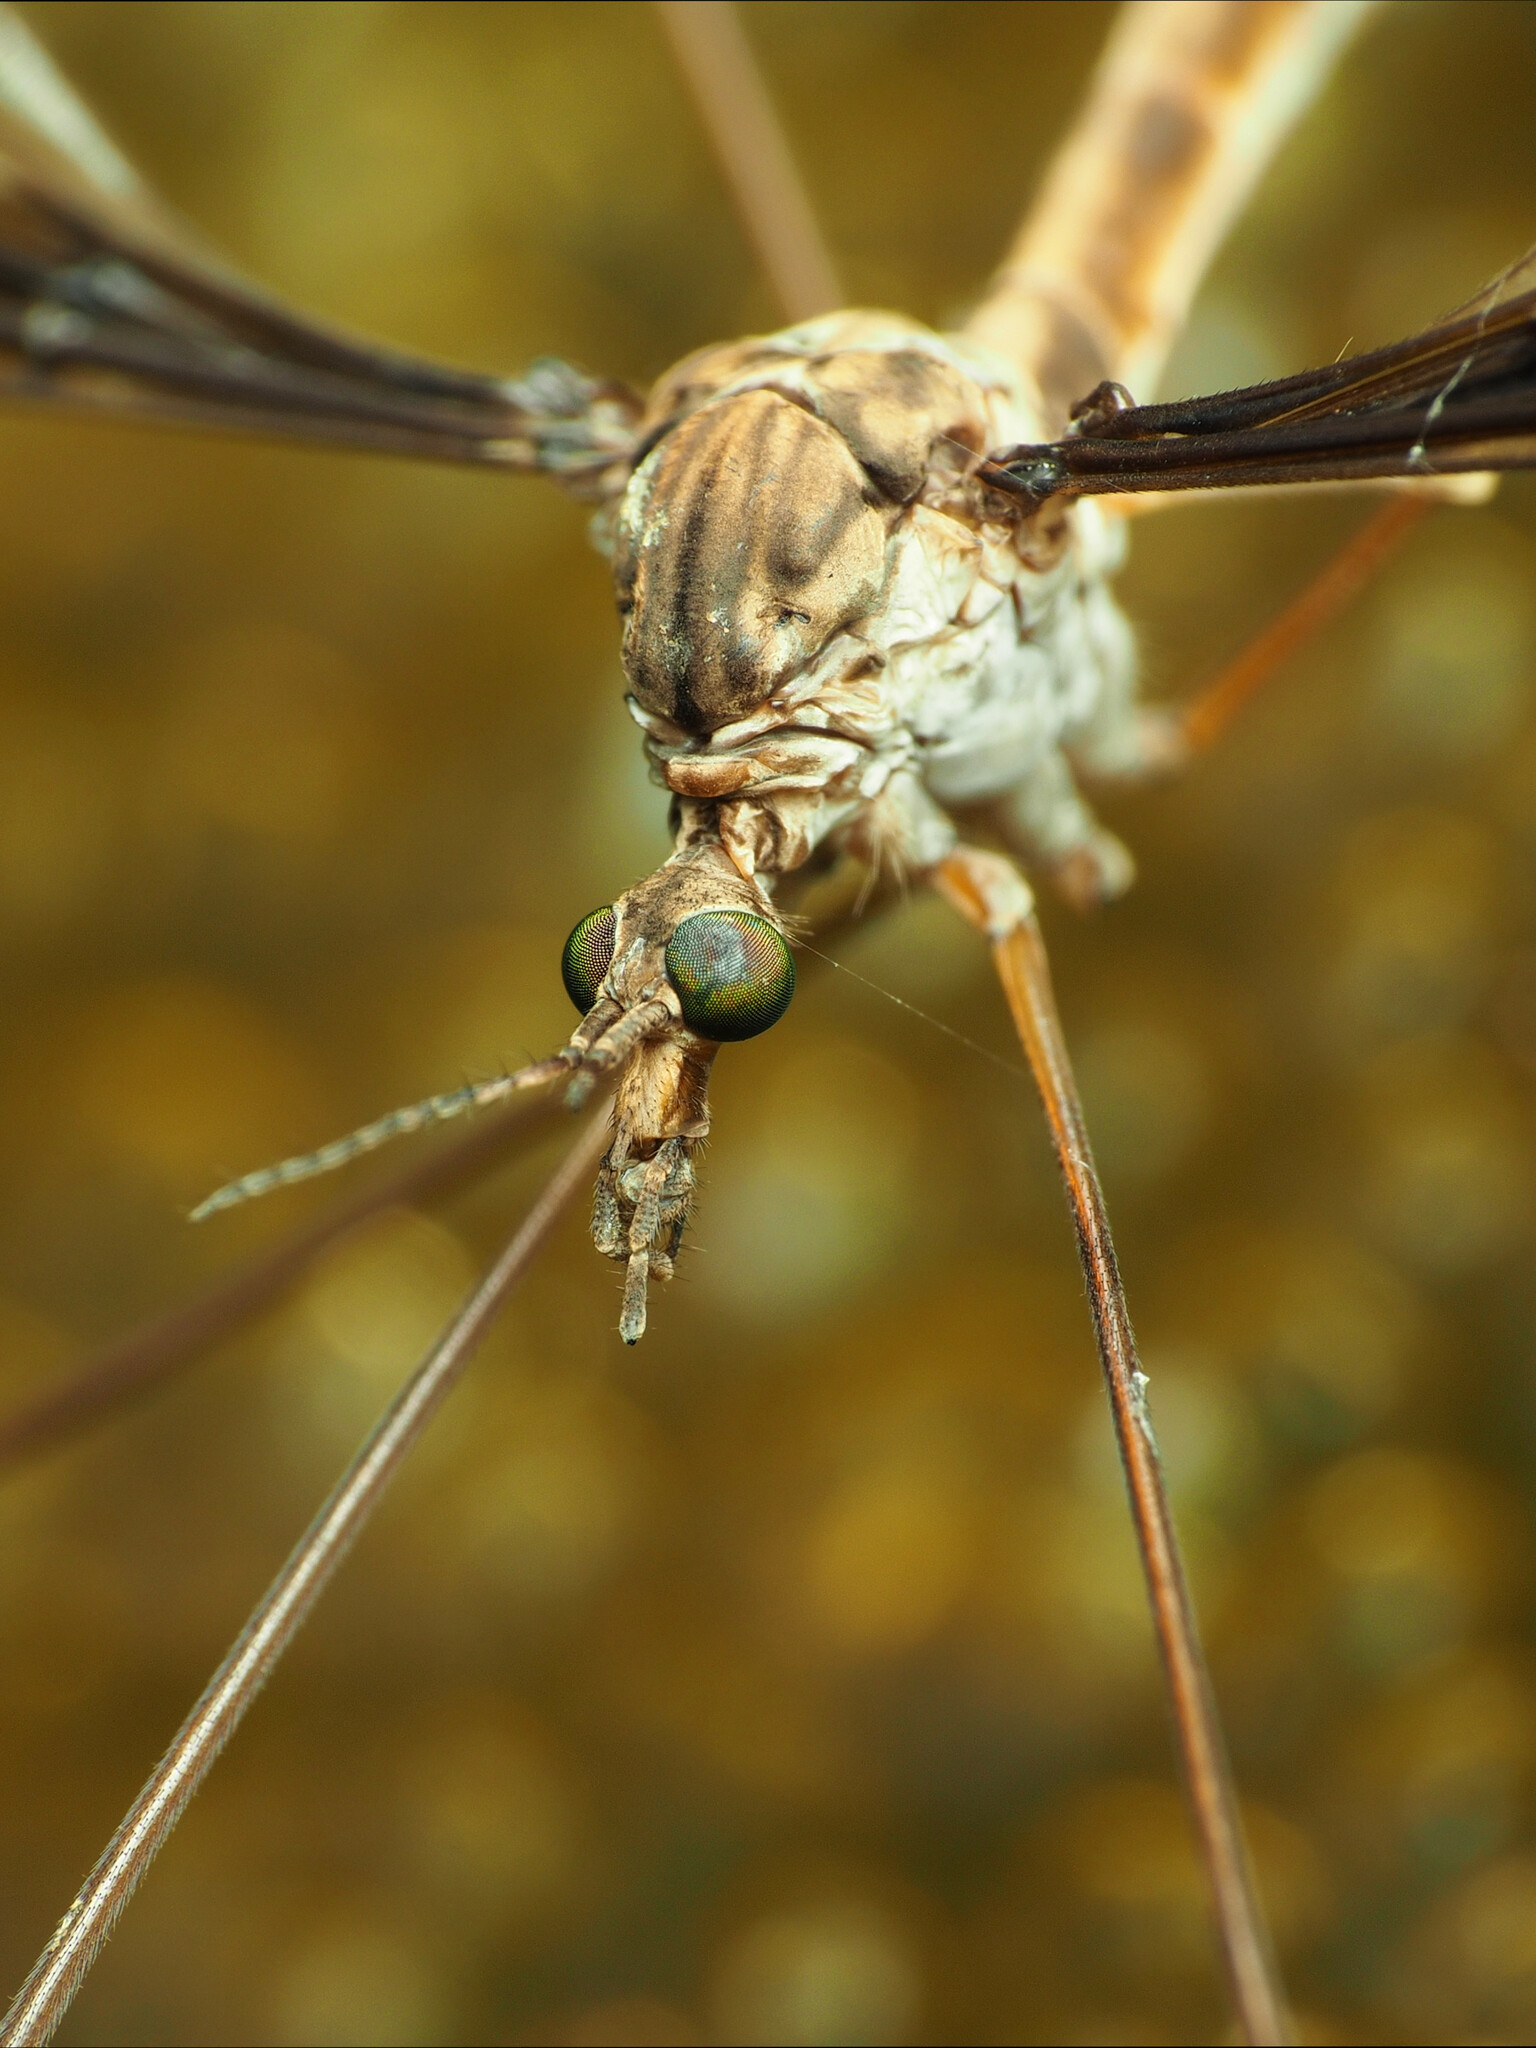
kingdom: Animalia
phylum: Arthropoda
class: Insecta
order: Diptera
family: Tipulidae
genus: Tipula
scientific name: Tipula caloptera
